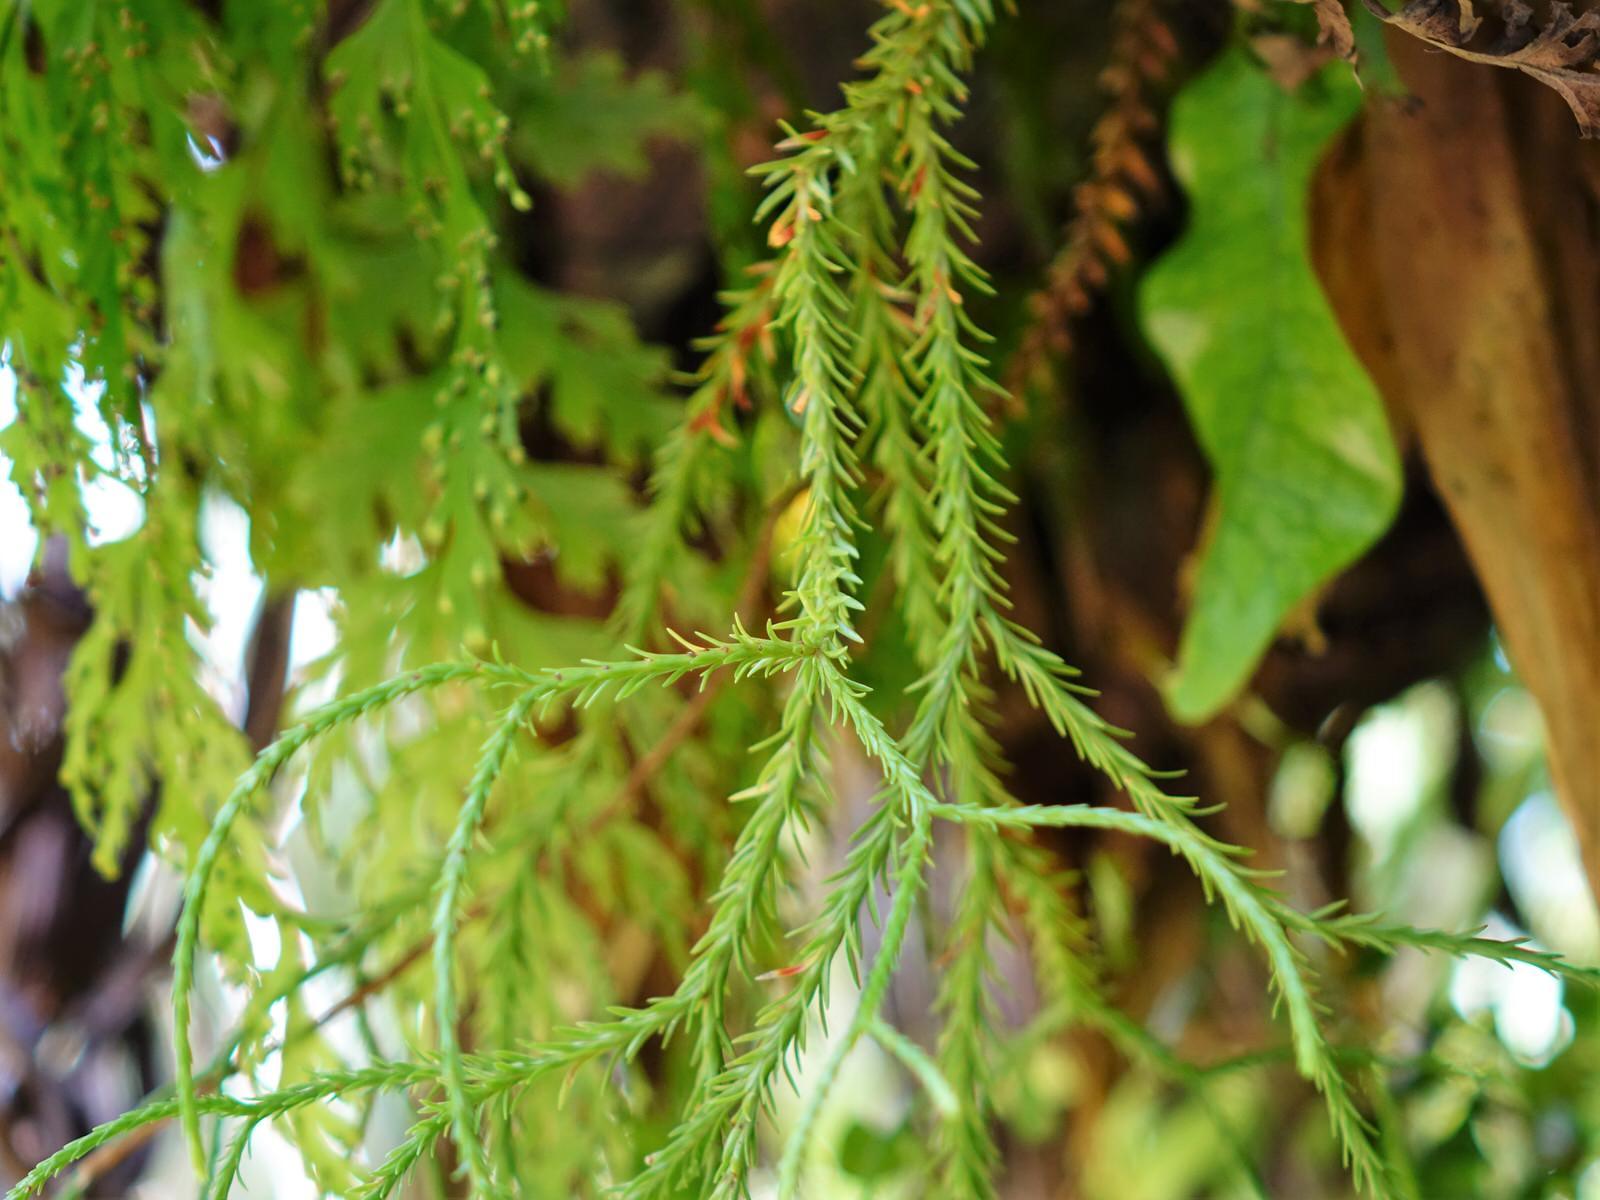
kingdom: Plantae
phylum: Tracheophyta
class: Lycopodiopsida
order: Lycopodiales
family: Lycopodiaceae
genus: Phlegmariurus
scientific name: Phlegmariurus varius
